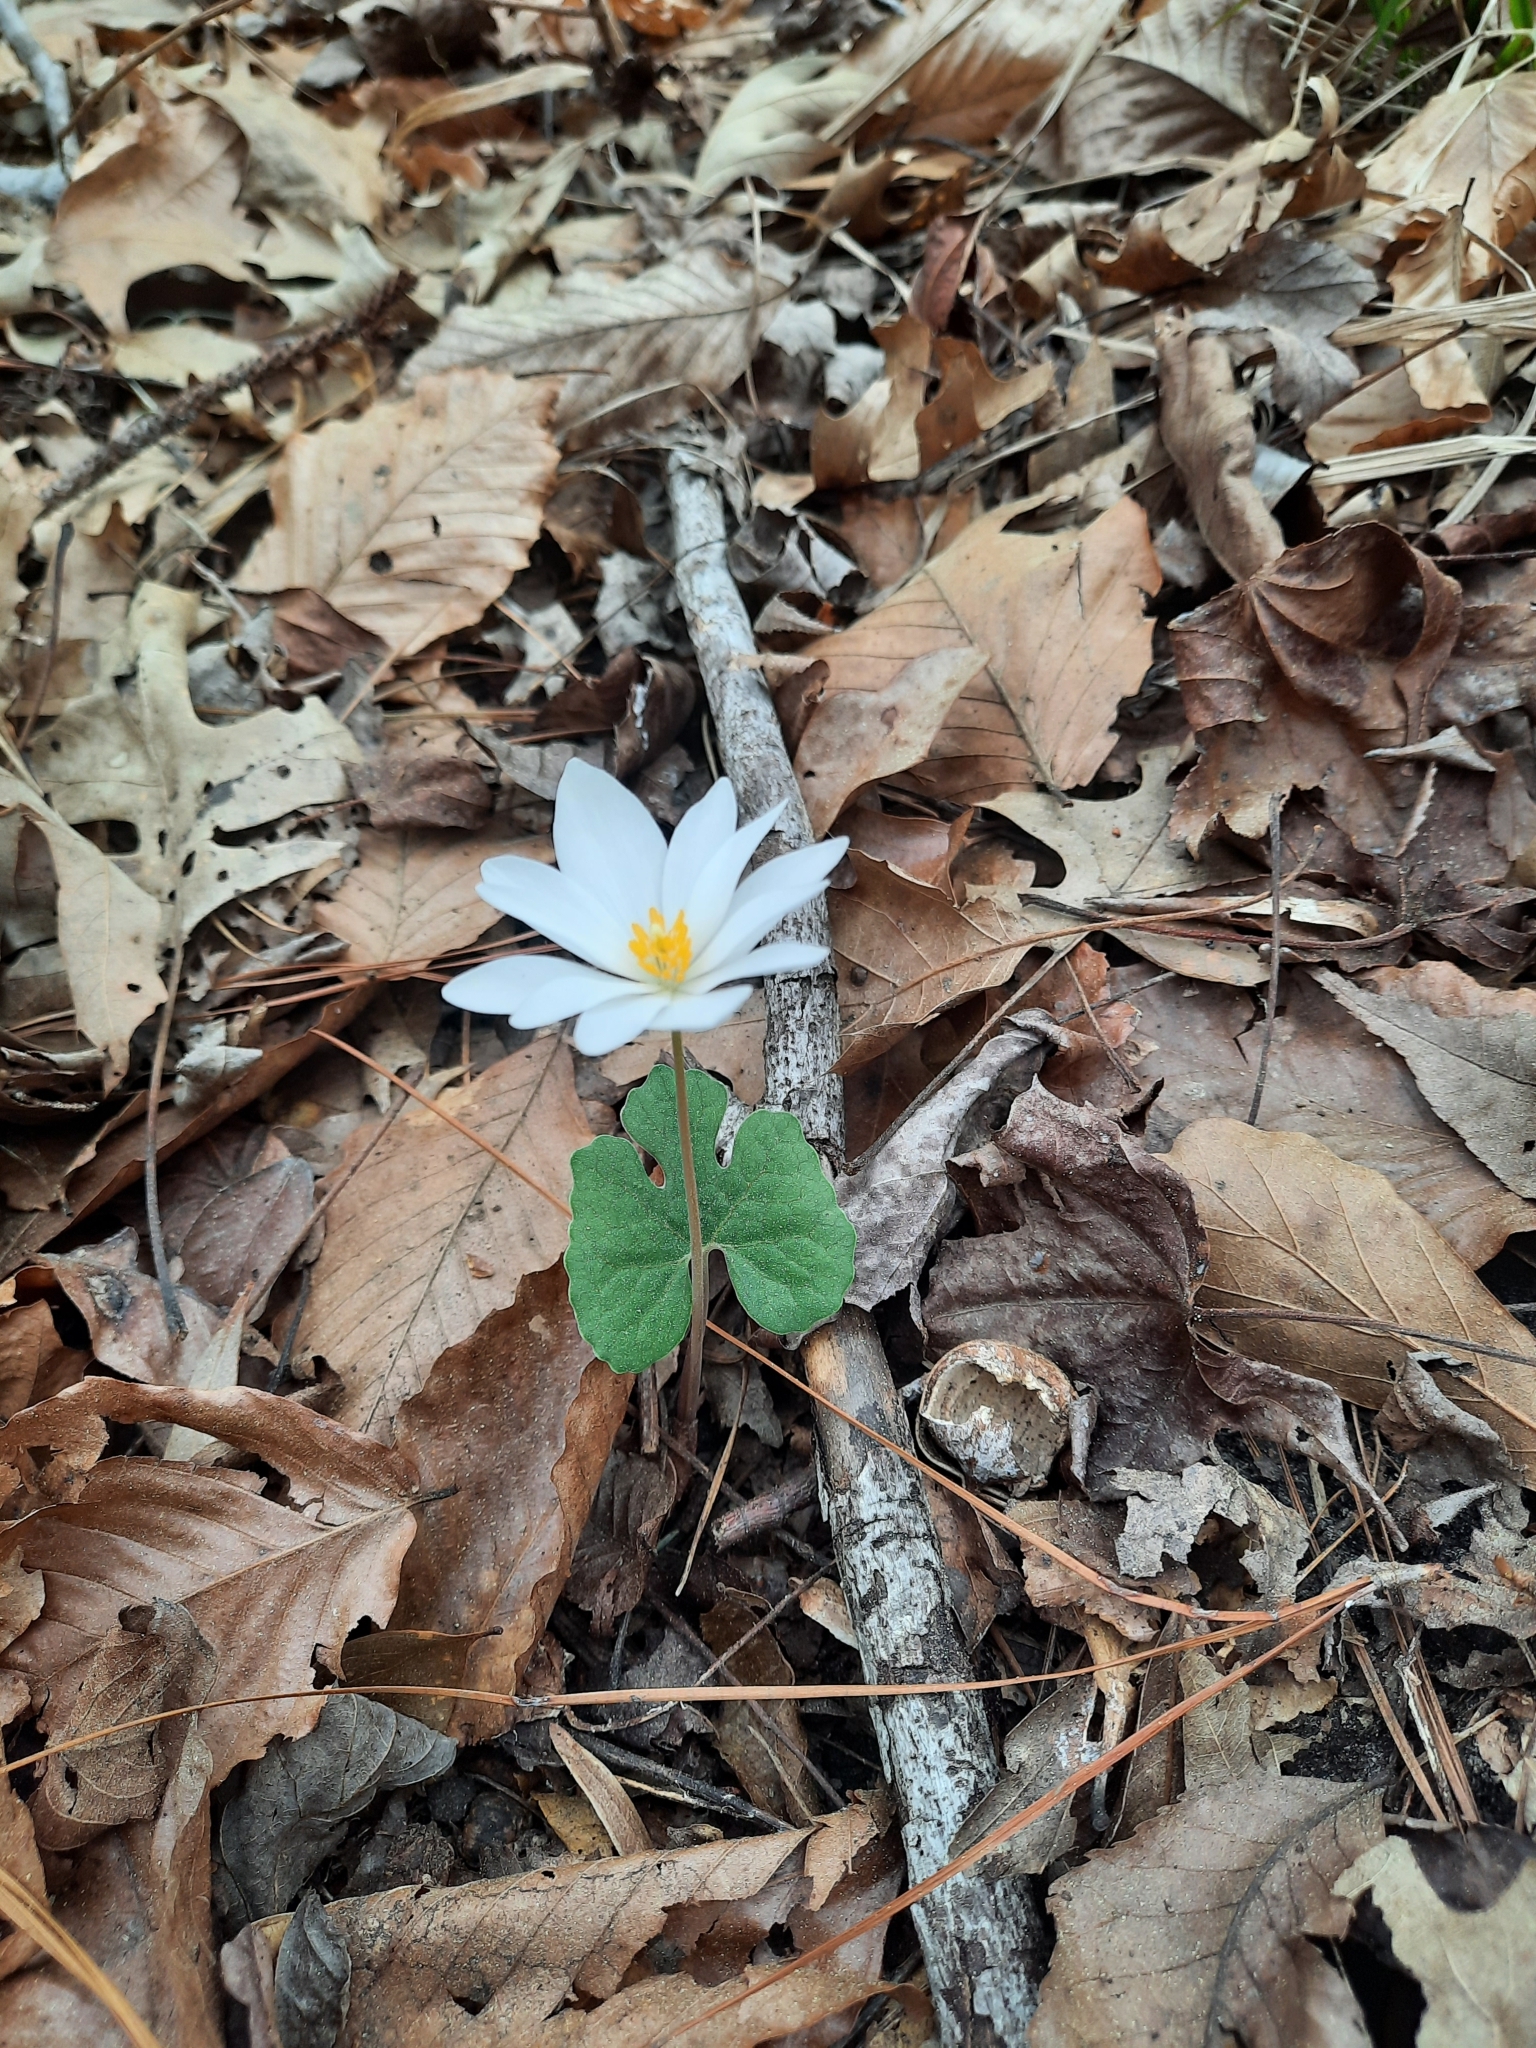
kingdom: Plantae
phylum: Tracheophyta
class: Magnoliopsida
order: Ranunculales
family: Papaveraceae
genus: Sanguinaria
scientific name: Sanguinaria canadensis
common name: Bloodroot
